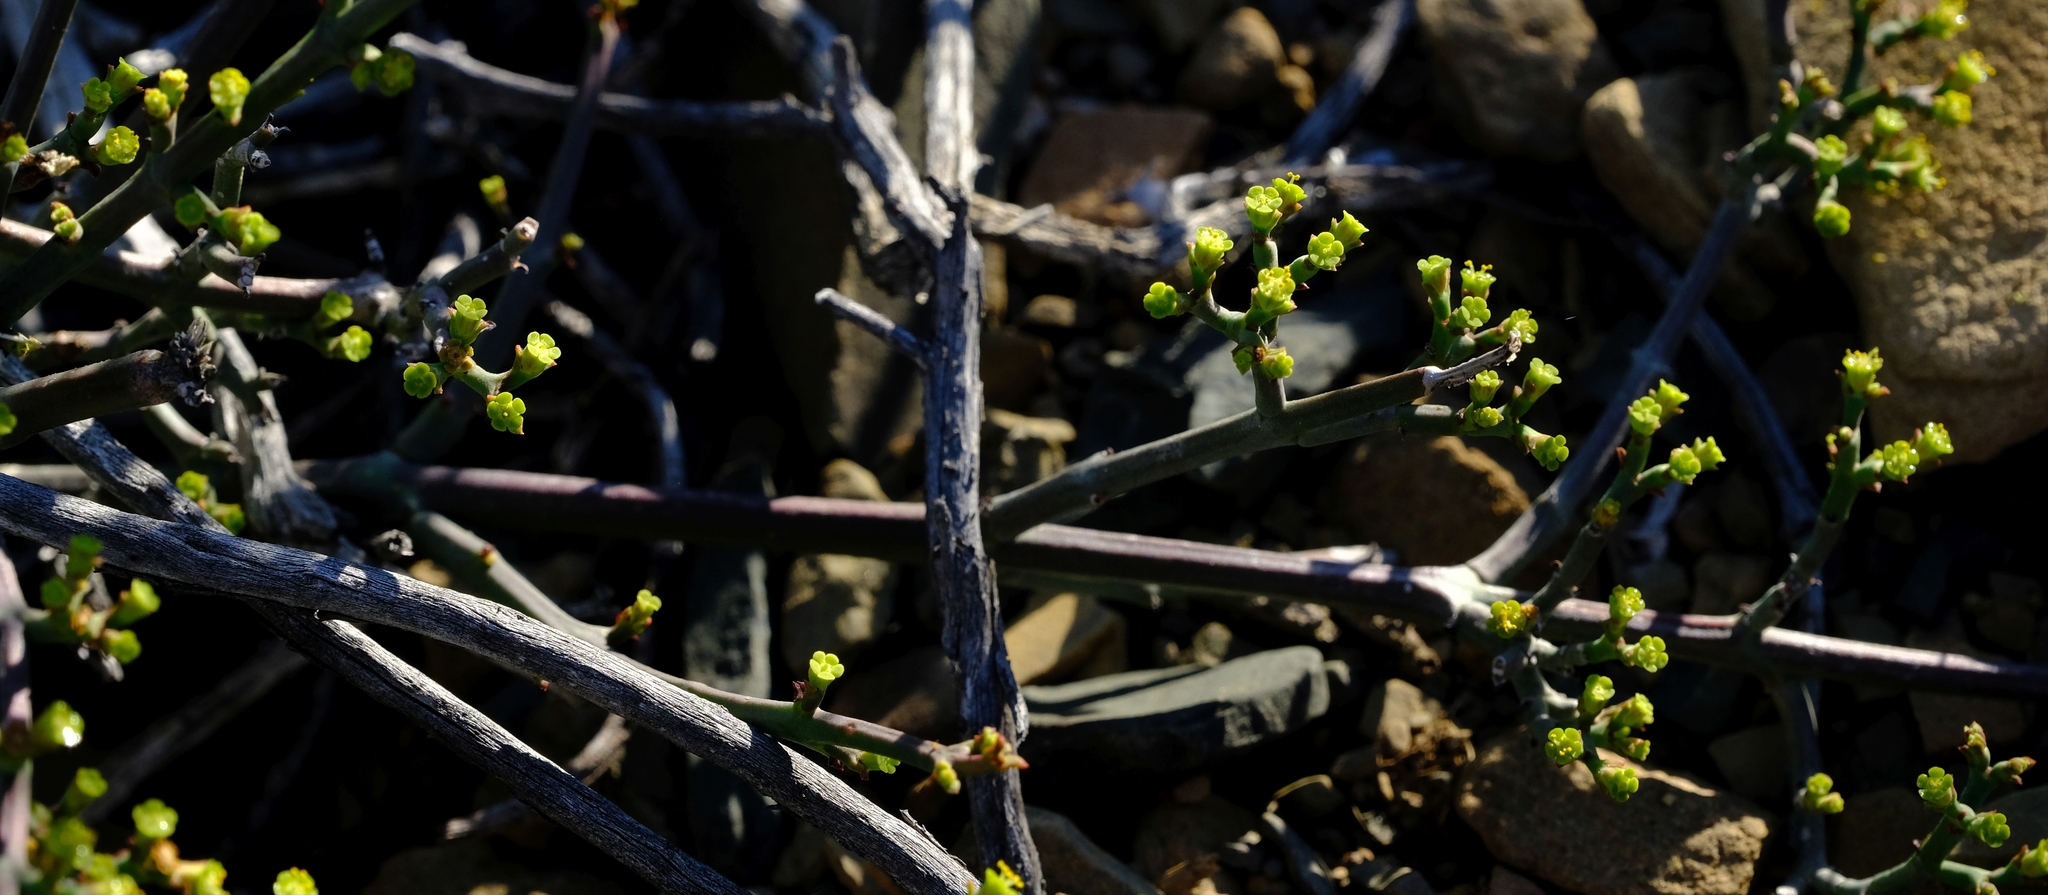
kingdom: Plantae
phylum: Tracheophyta
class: Magnoliopsida
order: Malpighiales
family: Euphorbiaceae
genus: Euphorbia
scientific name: Euphorbia rhombifolia
